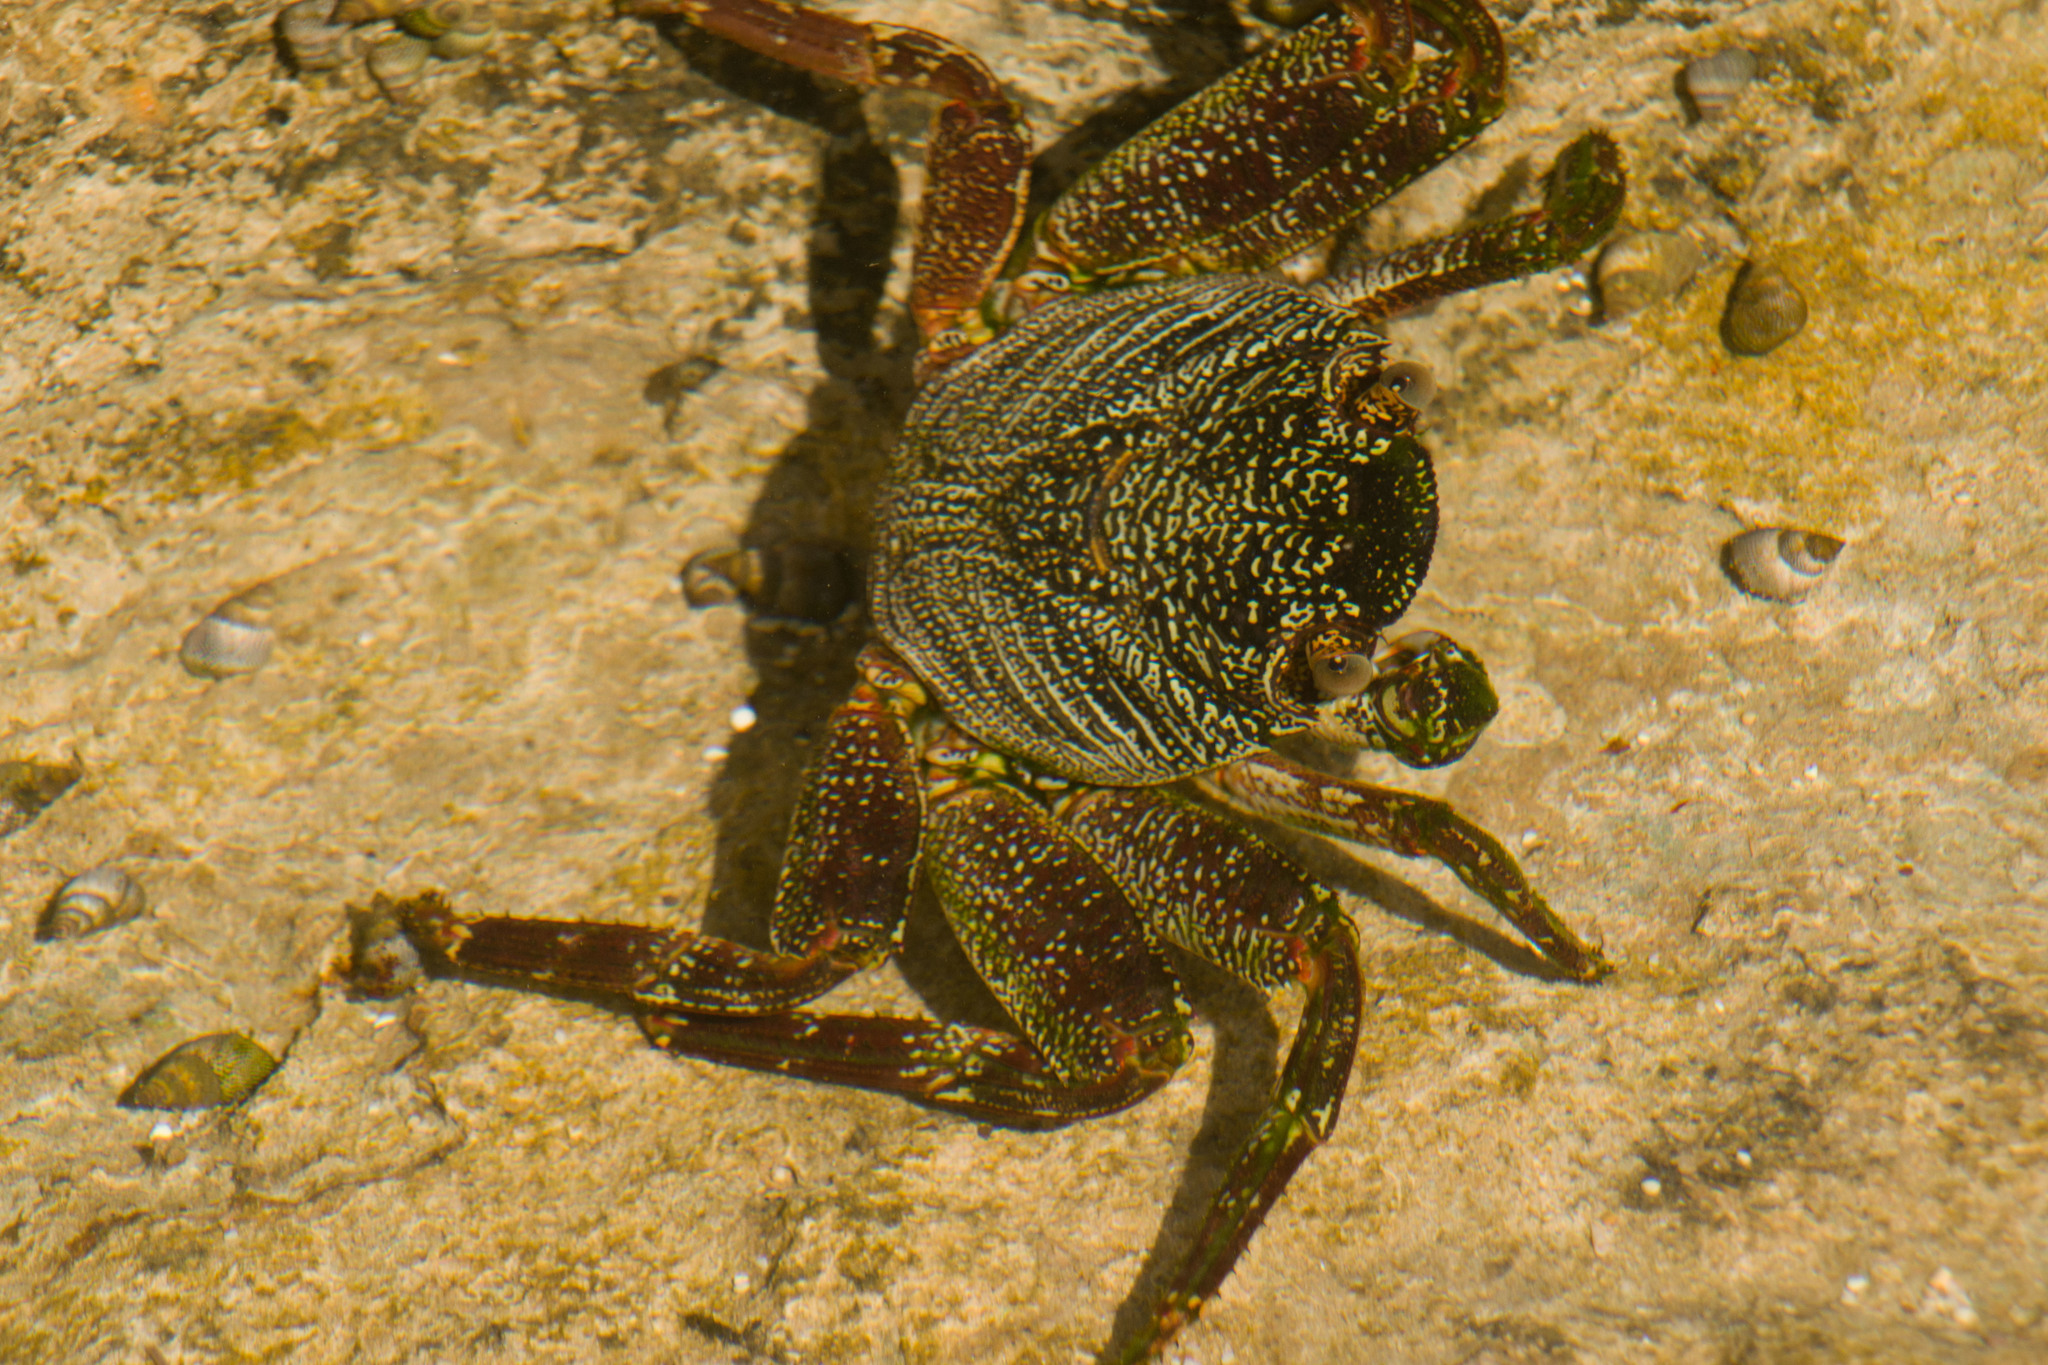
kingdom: Animalia
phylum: Arthropoda
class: Malacostraca
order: Decapoda
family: Grapsidae
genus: Grapsus
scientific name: Grapsus tenuicrustatus
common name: Natal lightfoot crab
